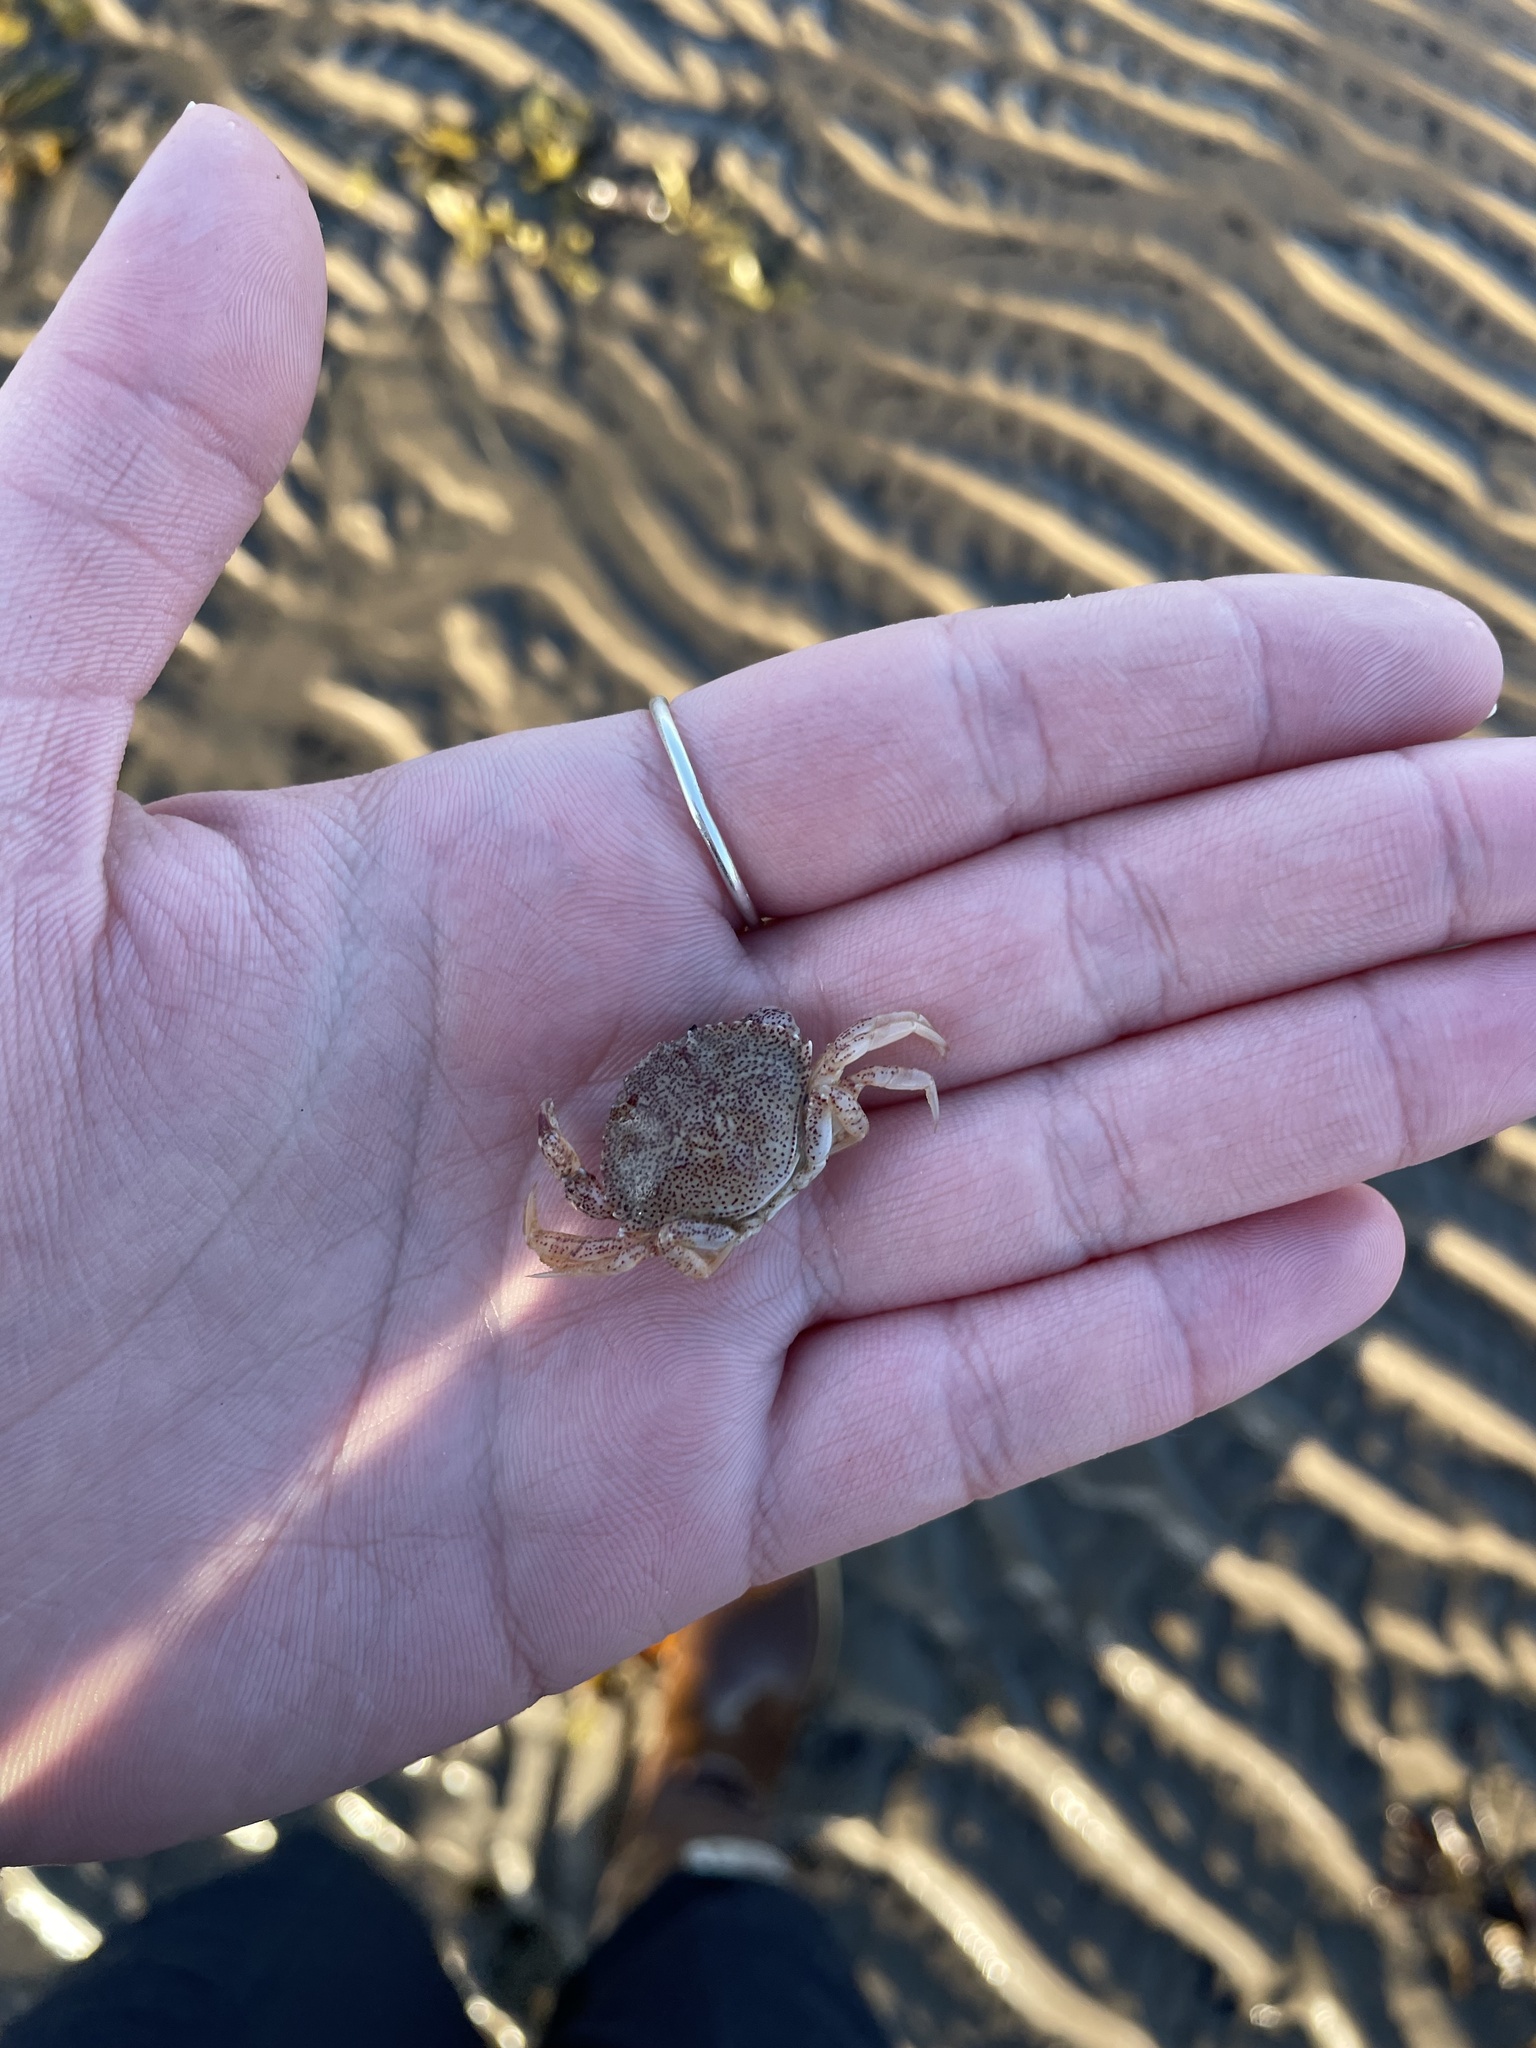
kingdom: Animalia
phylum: Arthropoda
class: Malacostraca
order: Decapoda
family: Cancridae
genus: Cancer
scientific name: Cancer irroratus
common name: Atlantic rock crab
